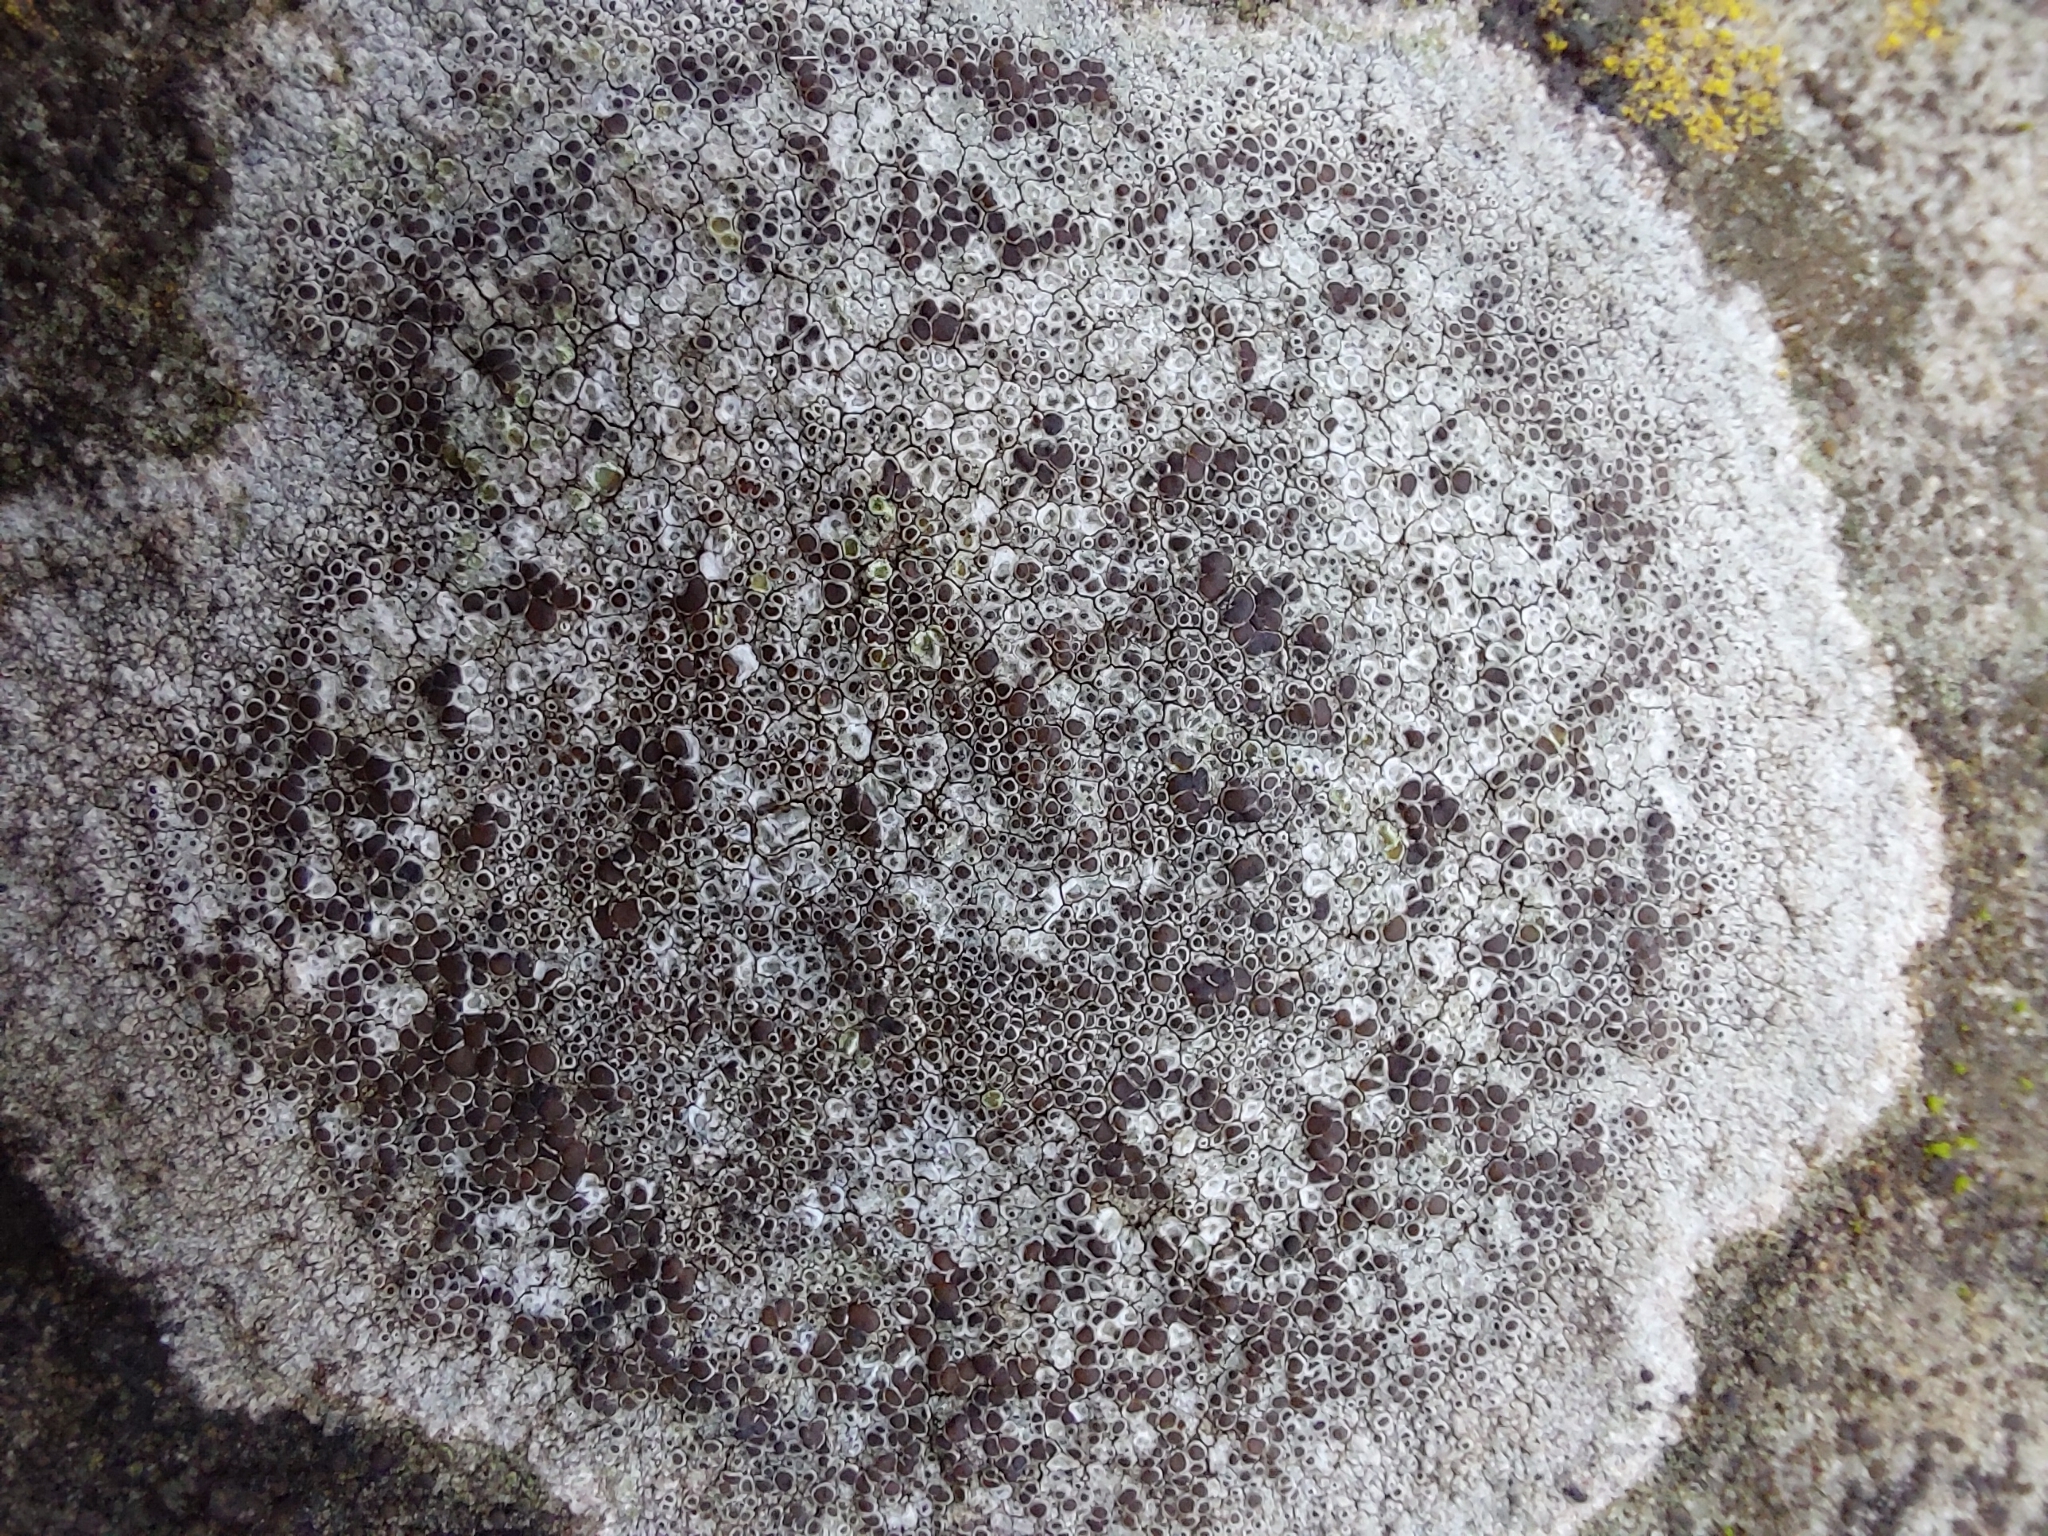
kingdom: Fungi
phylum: Ascomycota
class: Lecanoromycetes
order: Lecanorales
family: Lecanoraceae
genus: Lecanora
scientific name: Lecanora campestris
